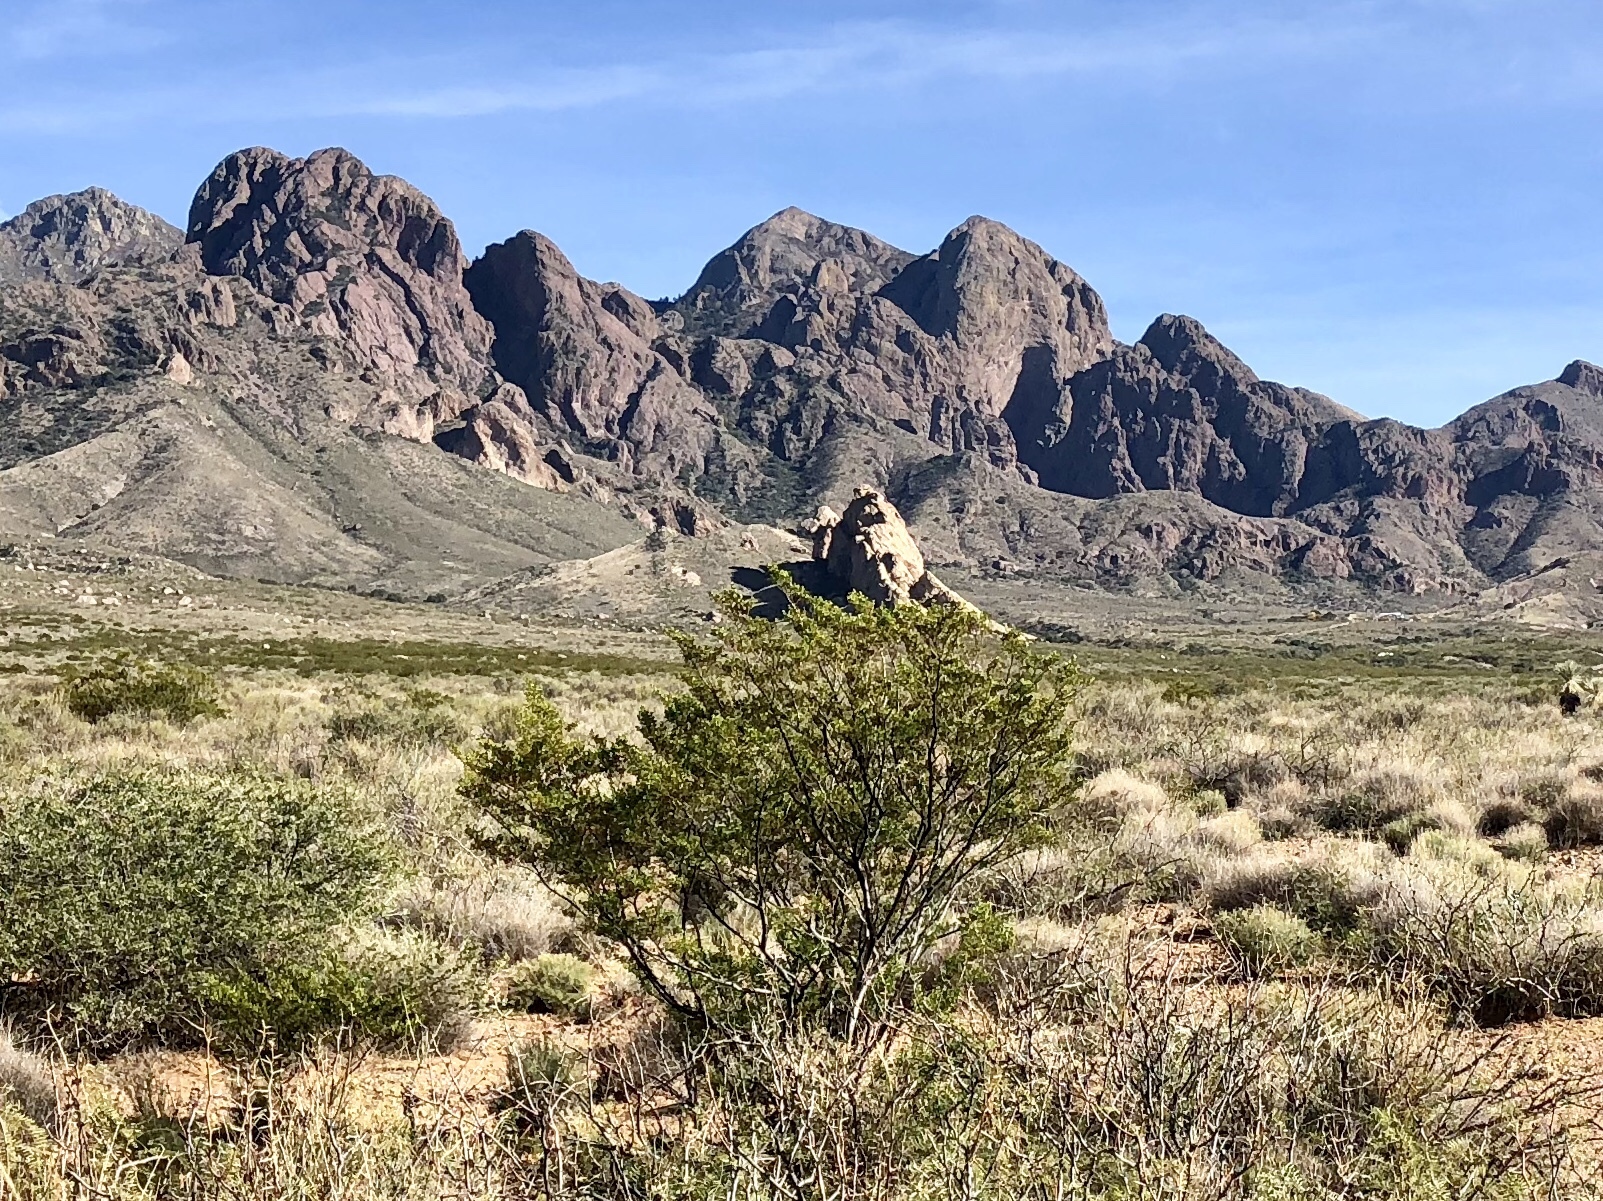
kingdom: Plantae
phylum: Tracheophyta
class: Magnoliopsida
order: Zygophyllales
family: Zygophyllaceae
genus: Larrea
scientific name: Larrea tridentata
